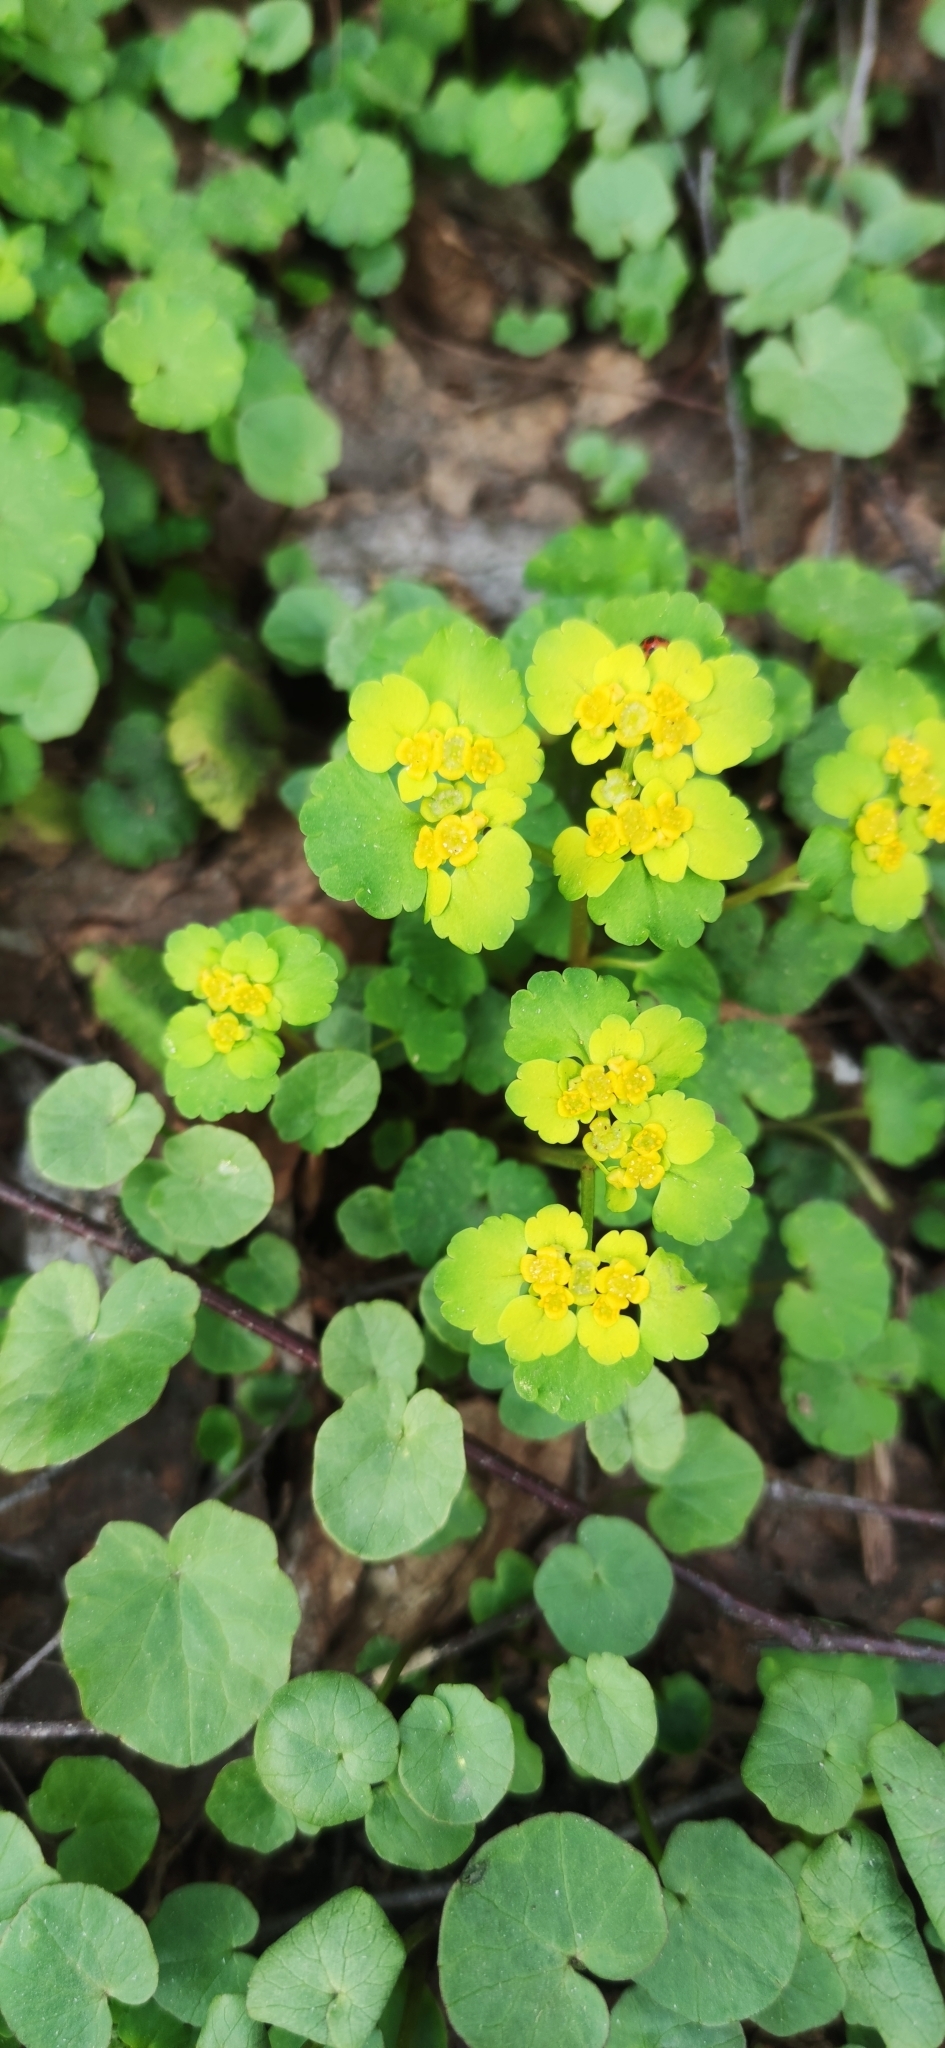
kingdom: Plantae
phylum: Tracheophyta
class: Magnoliopsida
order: Saxifragales
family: Saxifragaceae
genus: Chrysosplenium
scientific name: Chrysosplenium alternifolium
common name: Alternate-leaved golden-saxifrage
